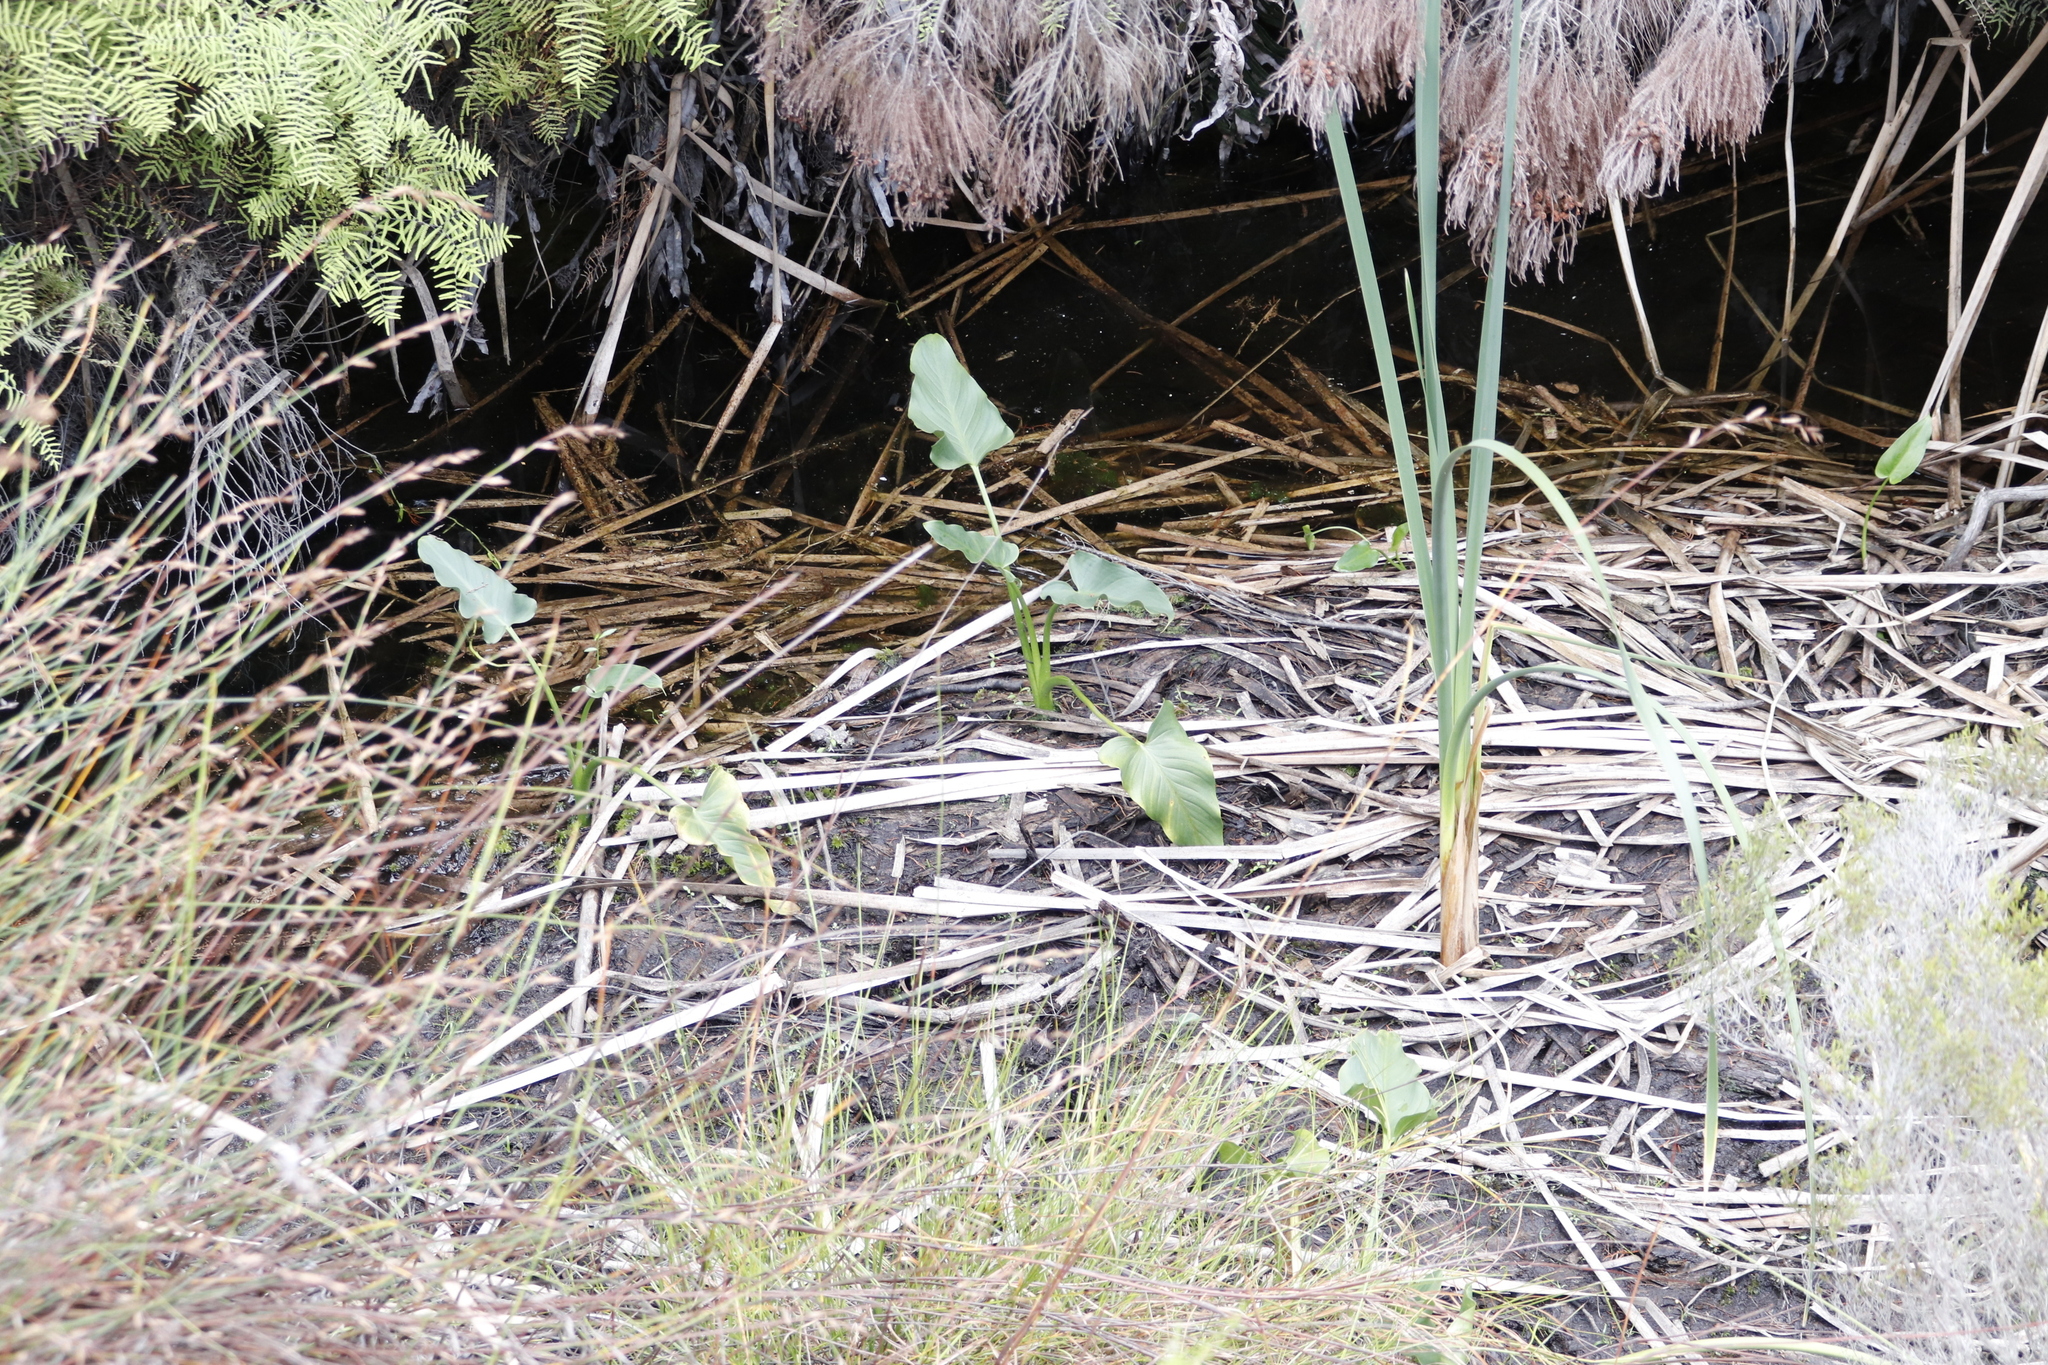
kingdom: Plantae
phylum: Tracheophyta
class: Liliopsida
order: Alismatales
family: Araceae
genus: Zantedeschia
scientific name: Zantedeschia aethiopica
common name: Altar-lily
